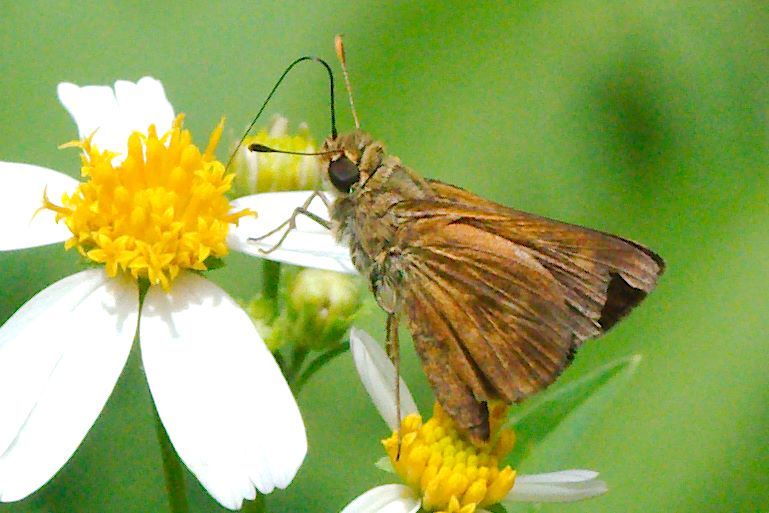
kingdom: Animalia
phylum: Arthropoda
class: Insecta
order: Lepidoptera
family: Hesperiidae
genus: Polites
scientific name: Polites otho
